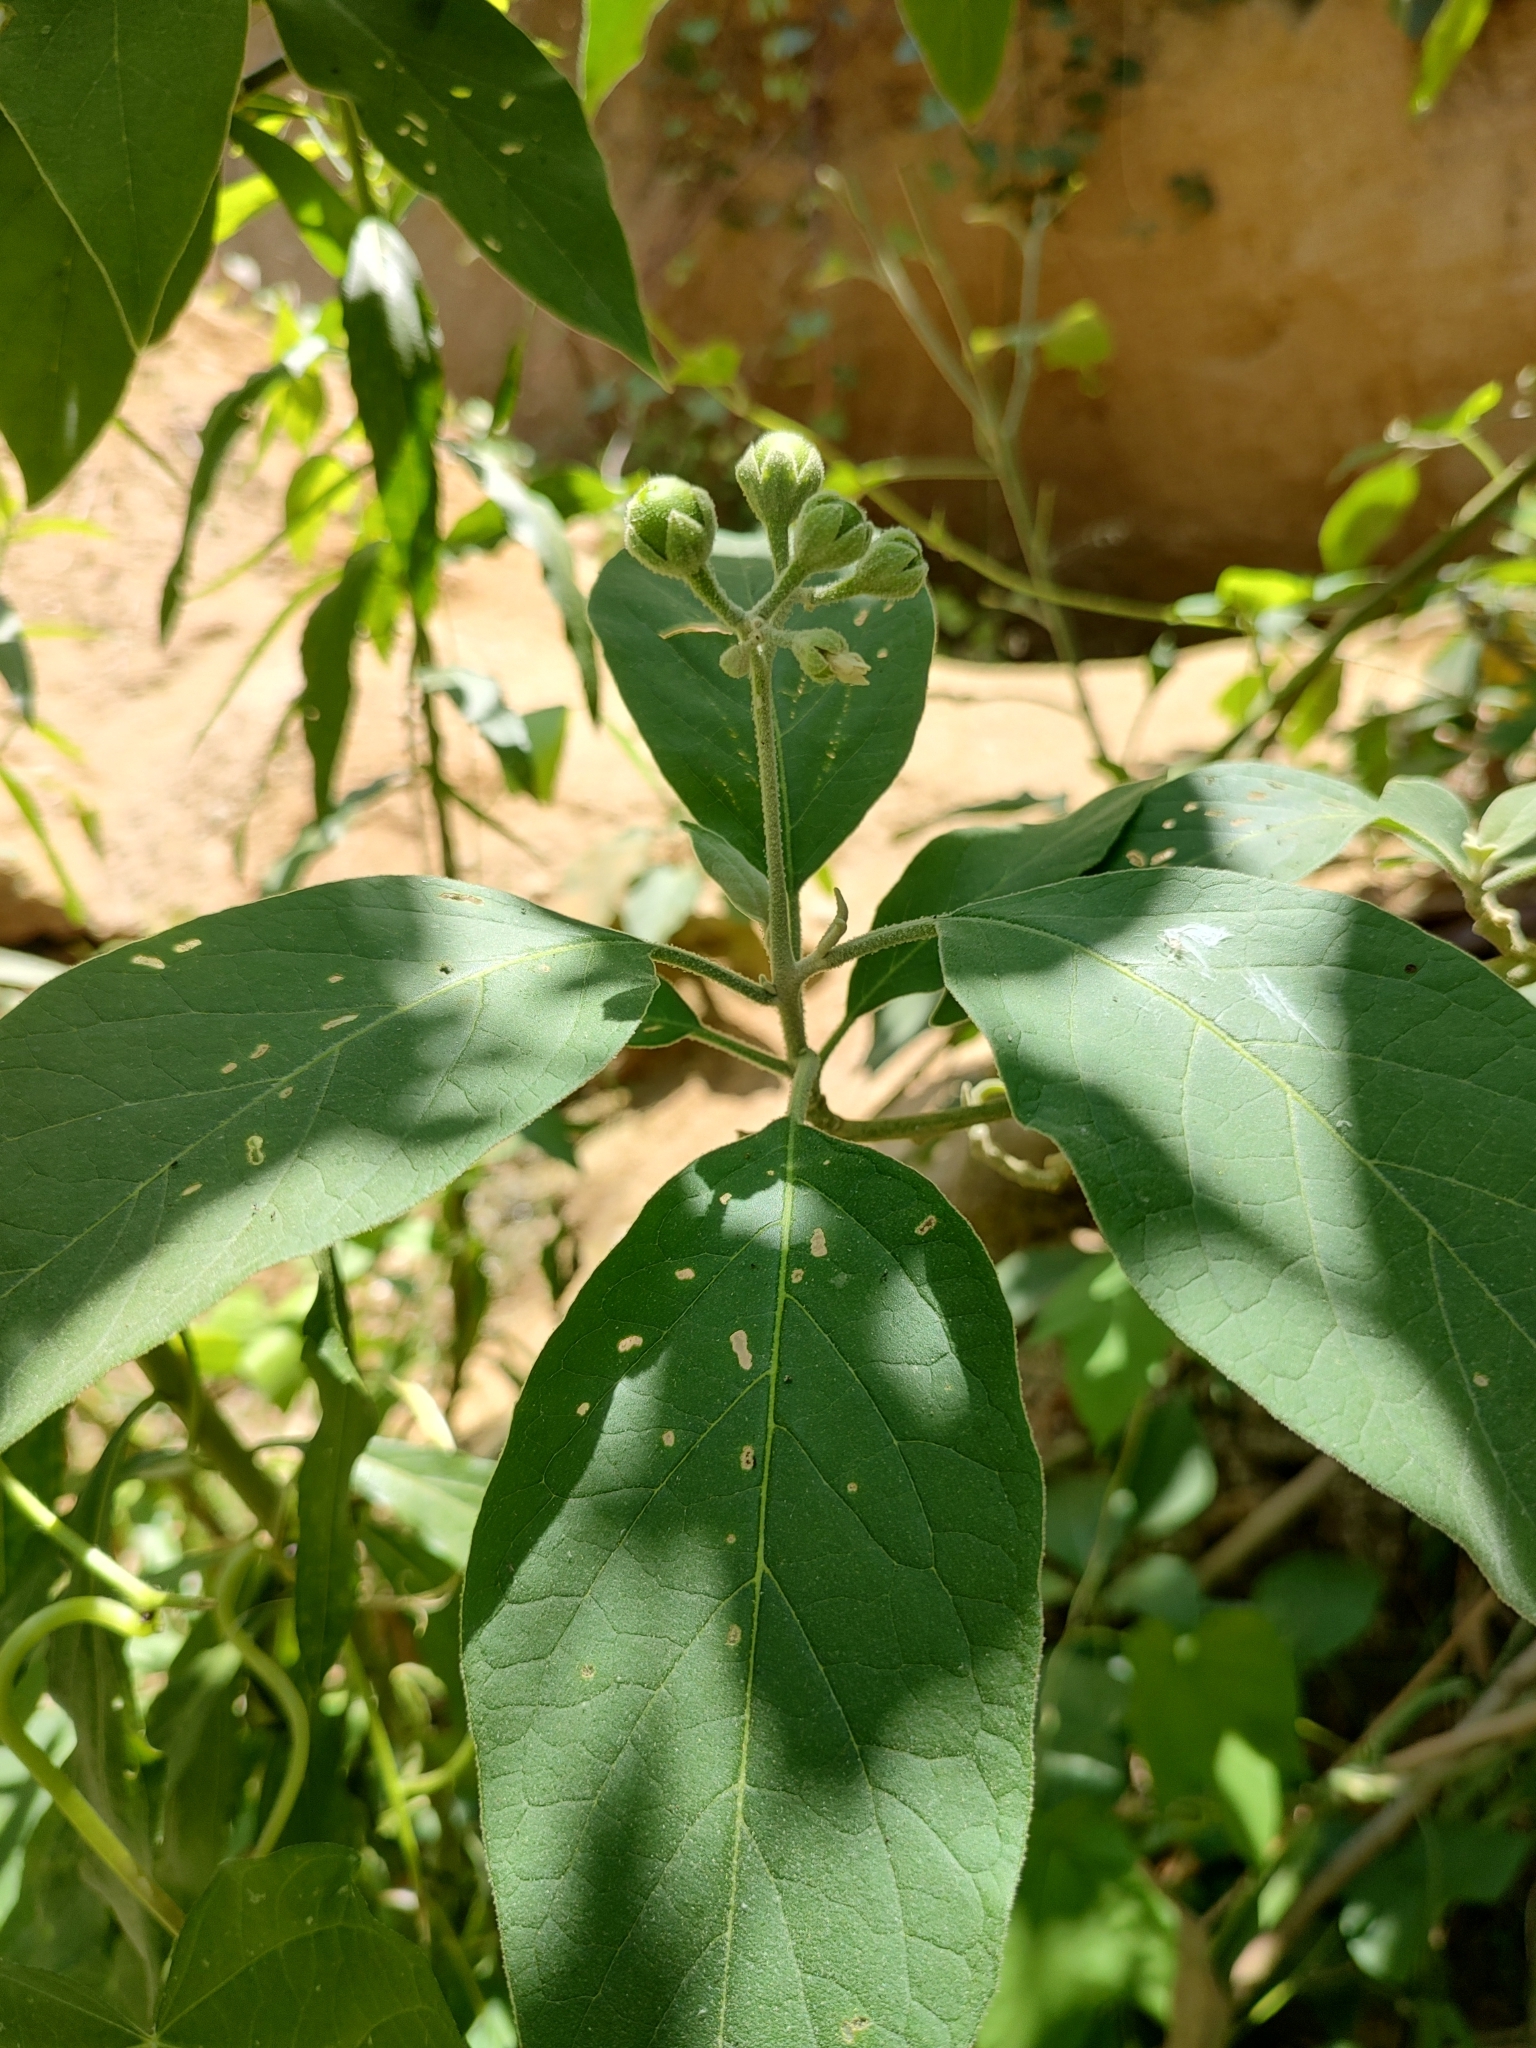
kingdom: Plantae
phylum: Tracheophyta
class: Magnoliopsida
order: Solanales
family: Solanaceae
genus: Solanum
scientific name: Solanum erianthum
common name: Tobacco-tree
